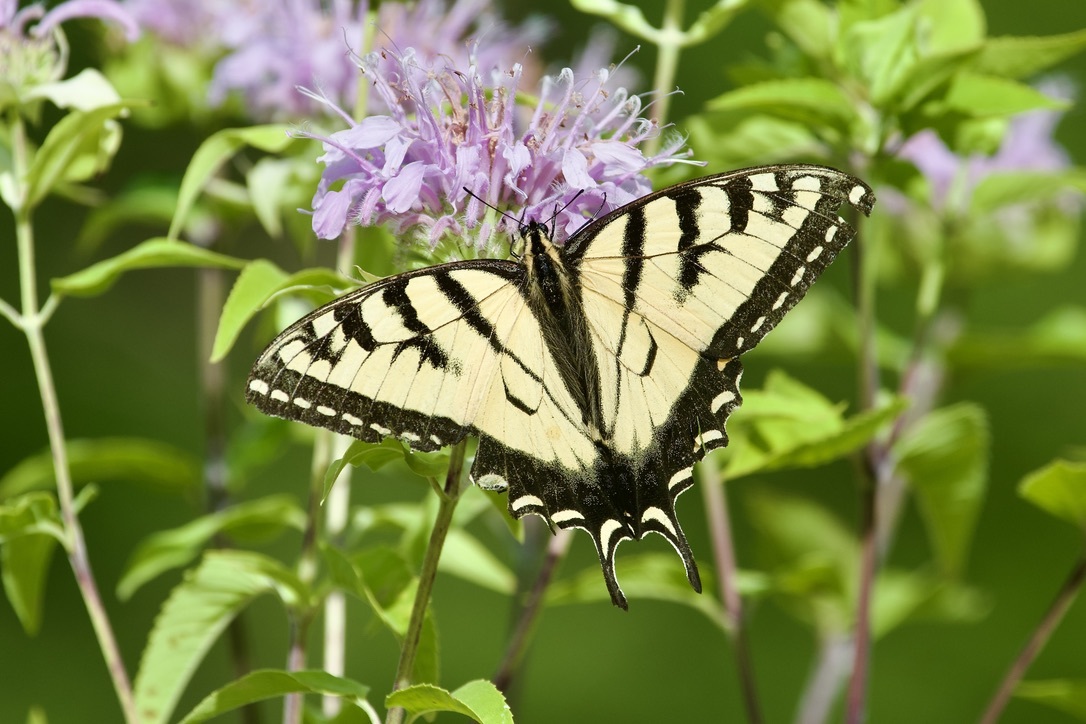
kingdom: Animalia
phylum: Arthropoda
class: Insecta
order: Lepidoptera
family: Papilionidae
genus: Papilio
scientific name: Papilio
